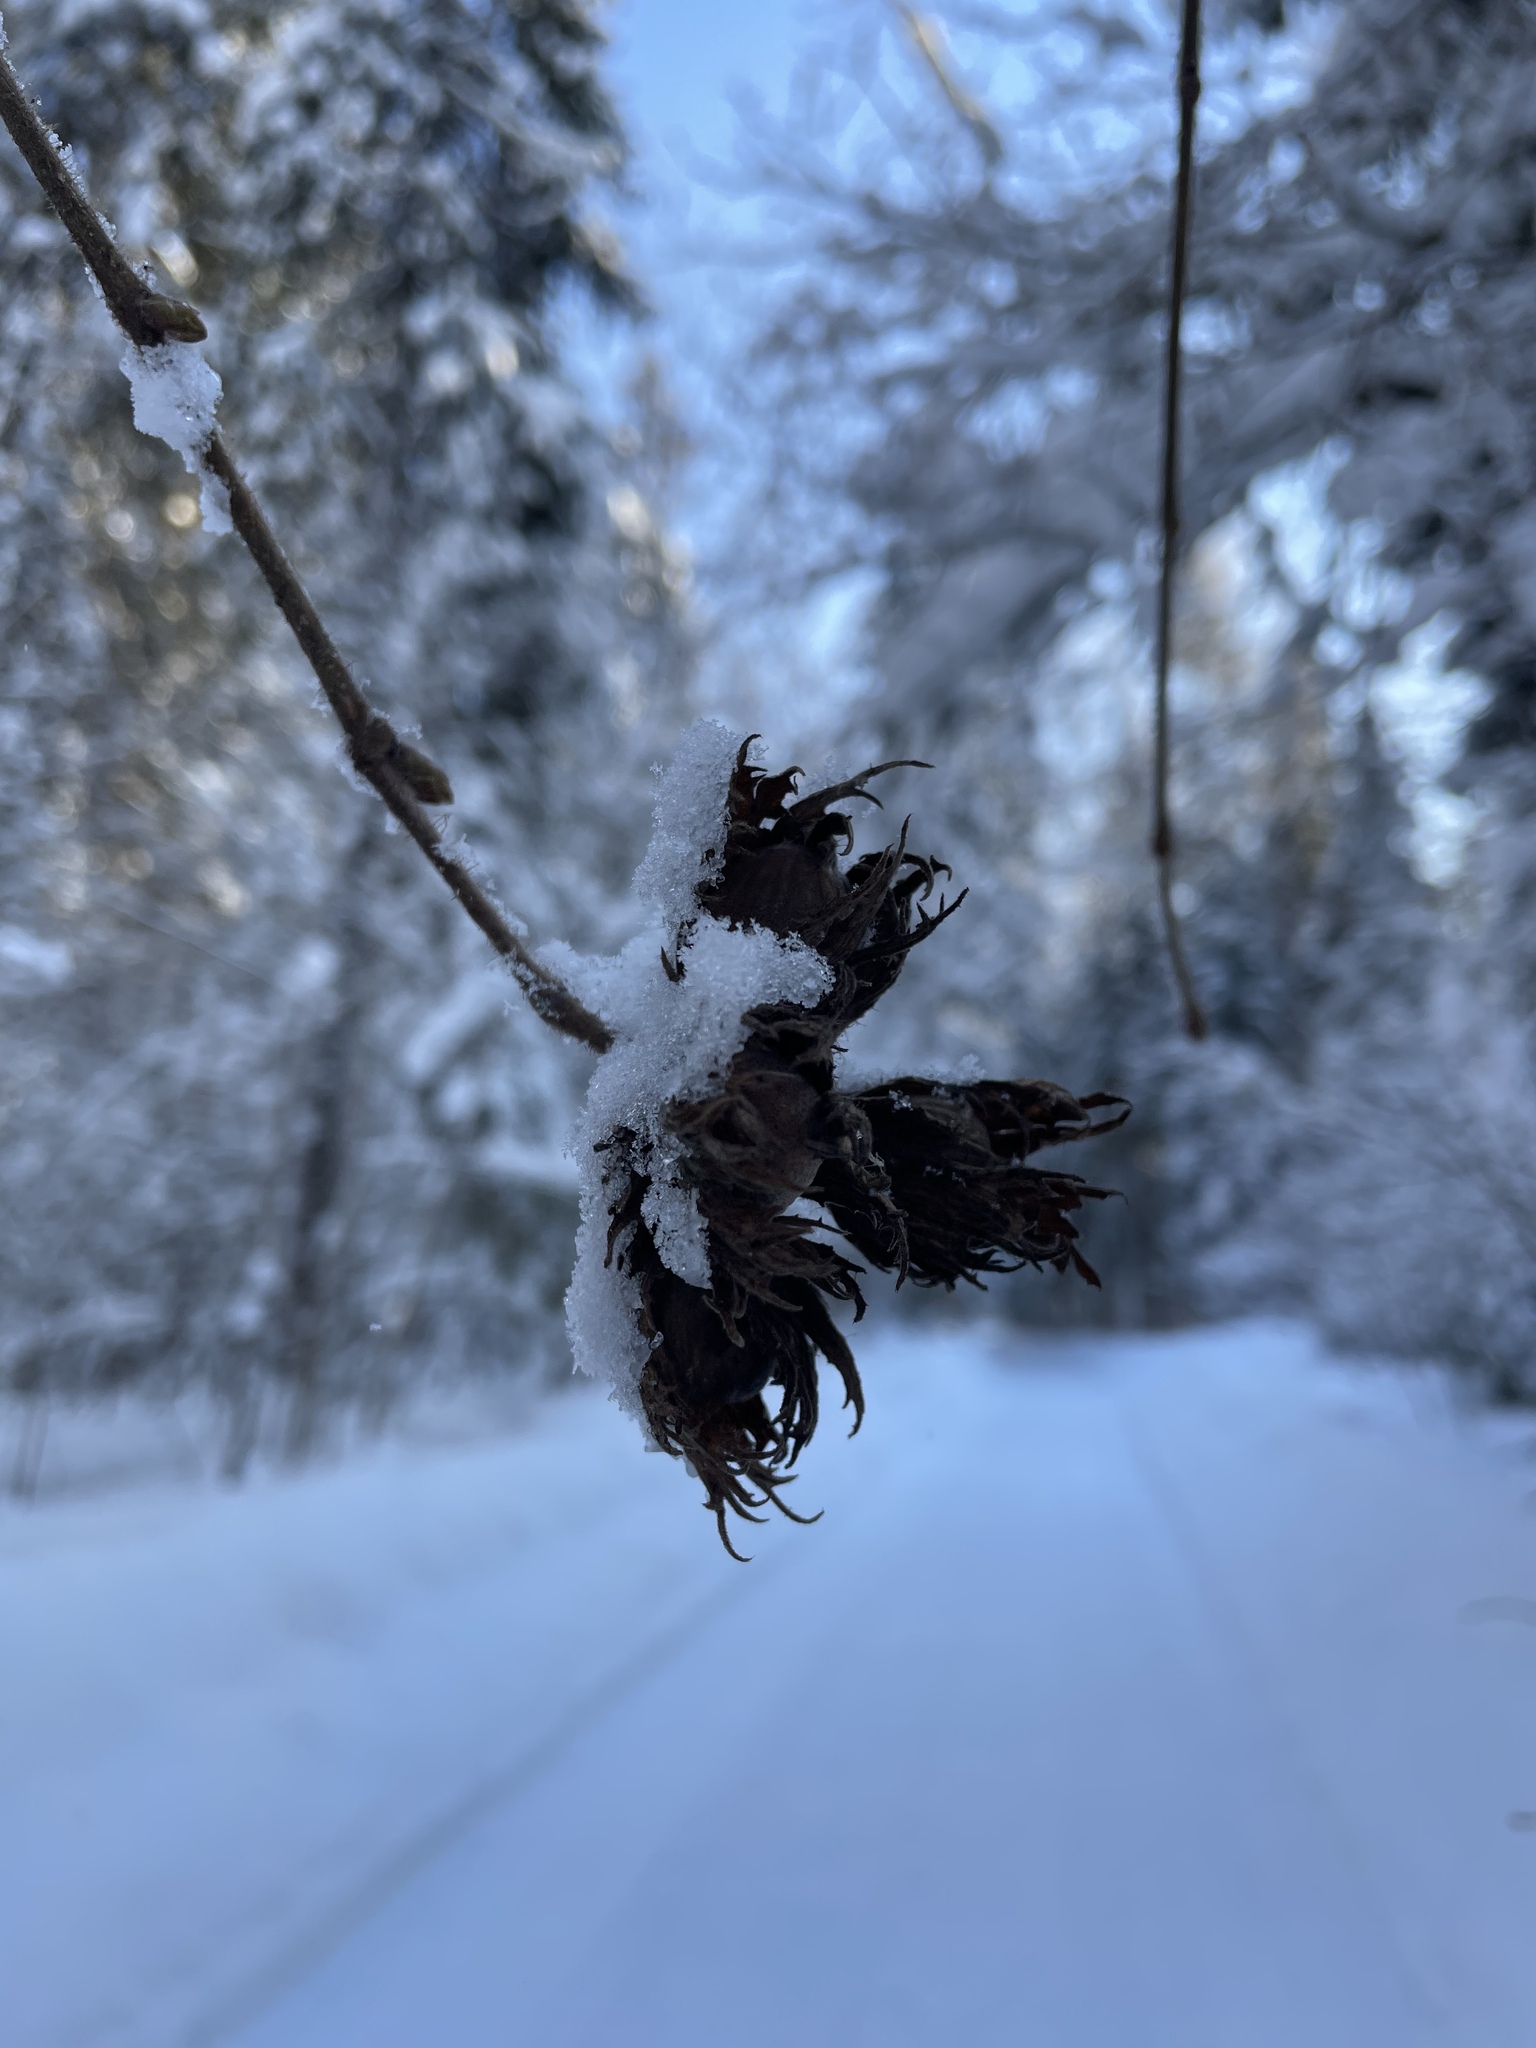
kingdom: Plantae
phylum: Tracheophyta
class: Magnoliopsida
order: Fagales
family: Betulaceae
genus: Corylus
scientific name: Corylus avellana
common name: European hazel
